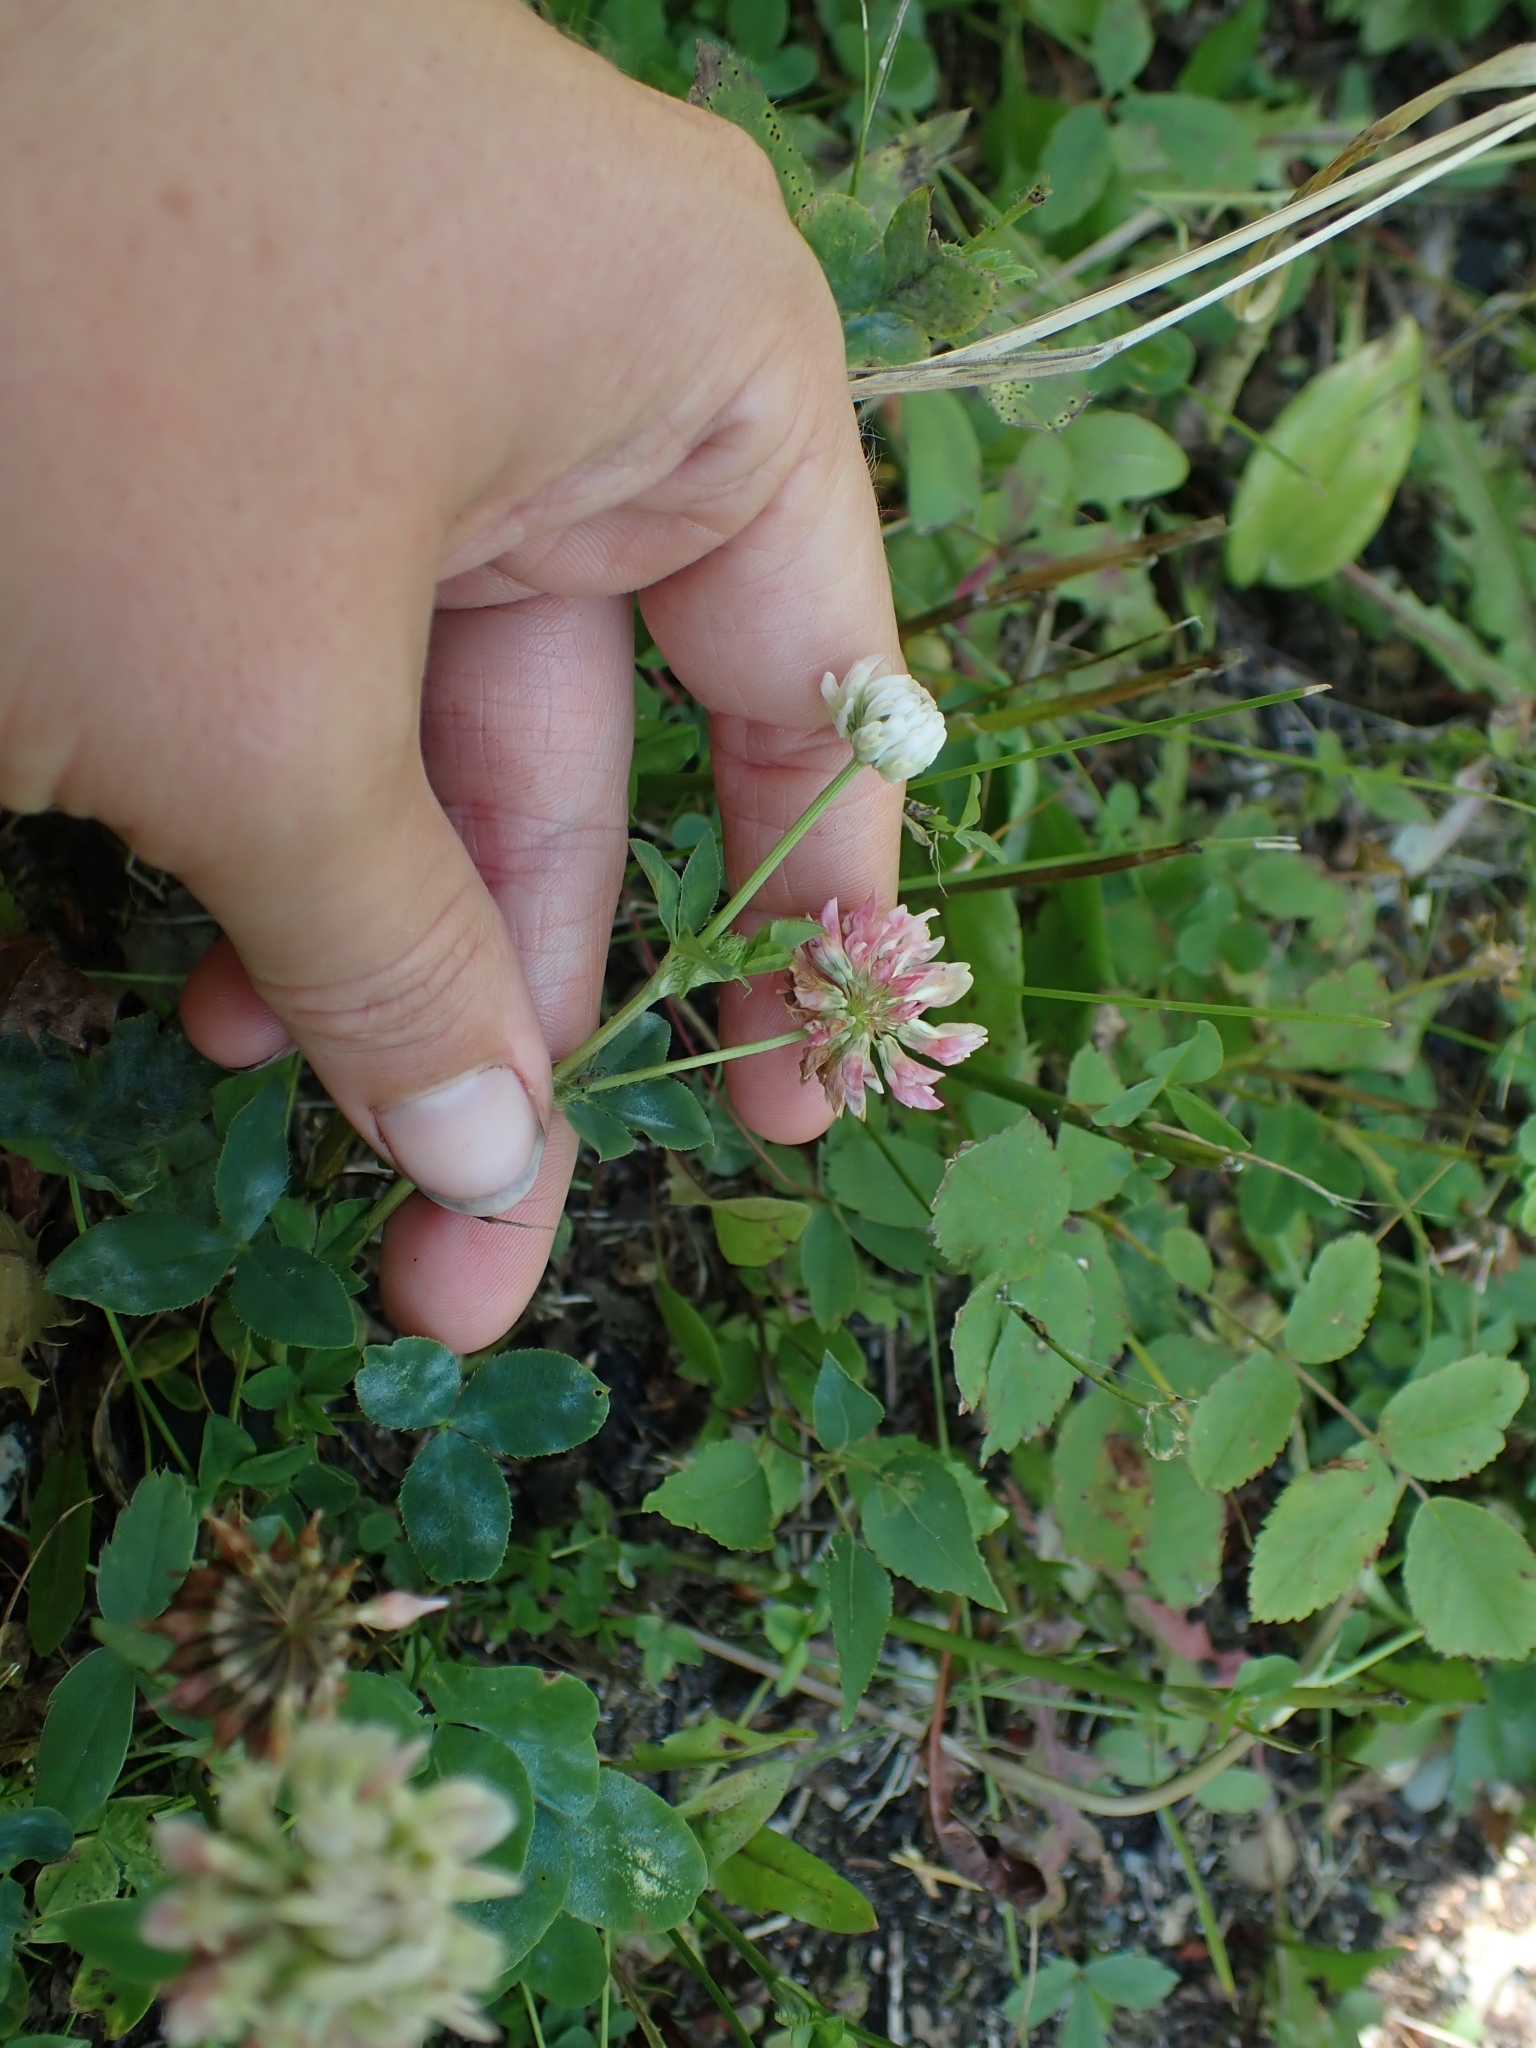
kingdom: Plantae
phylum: Tracheophyta
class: Magnoliopsida
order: Fabales
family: Fabaceae
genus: Trifolium
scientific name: Trifolium hybridum
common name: Alsike clover
